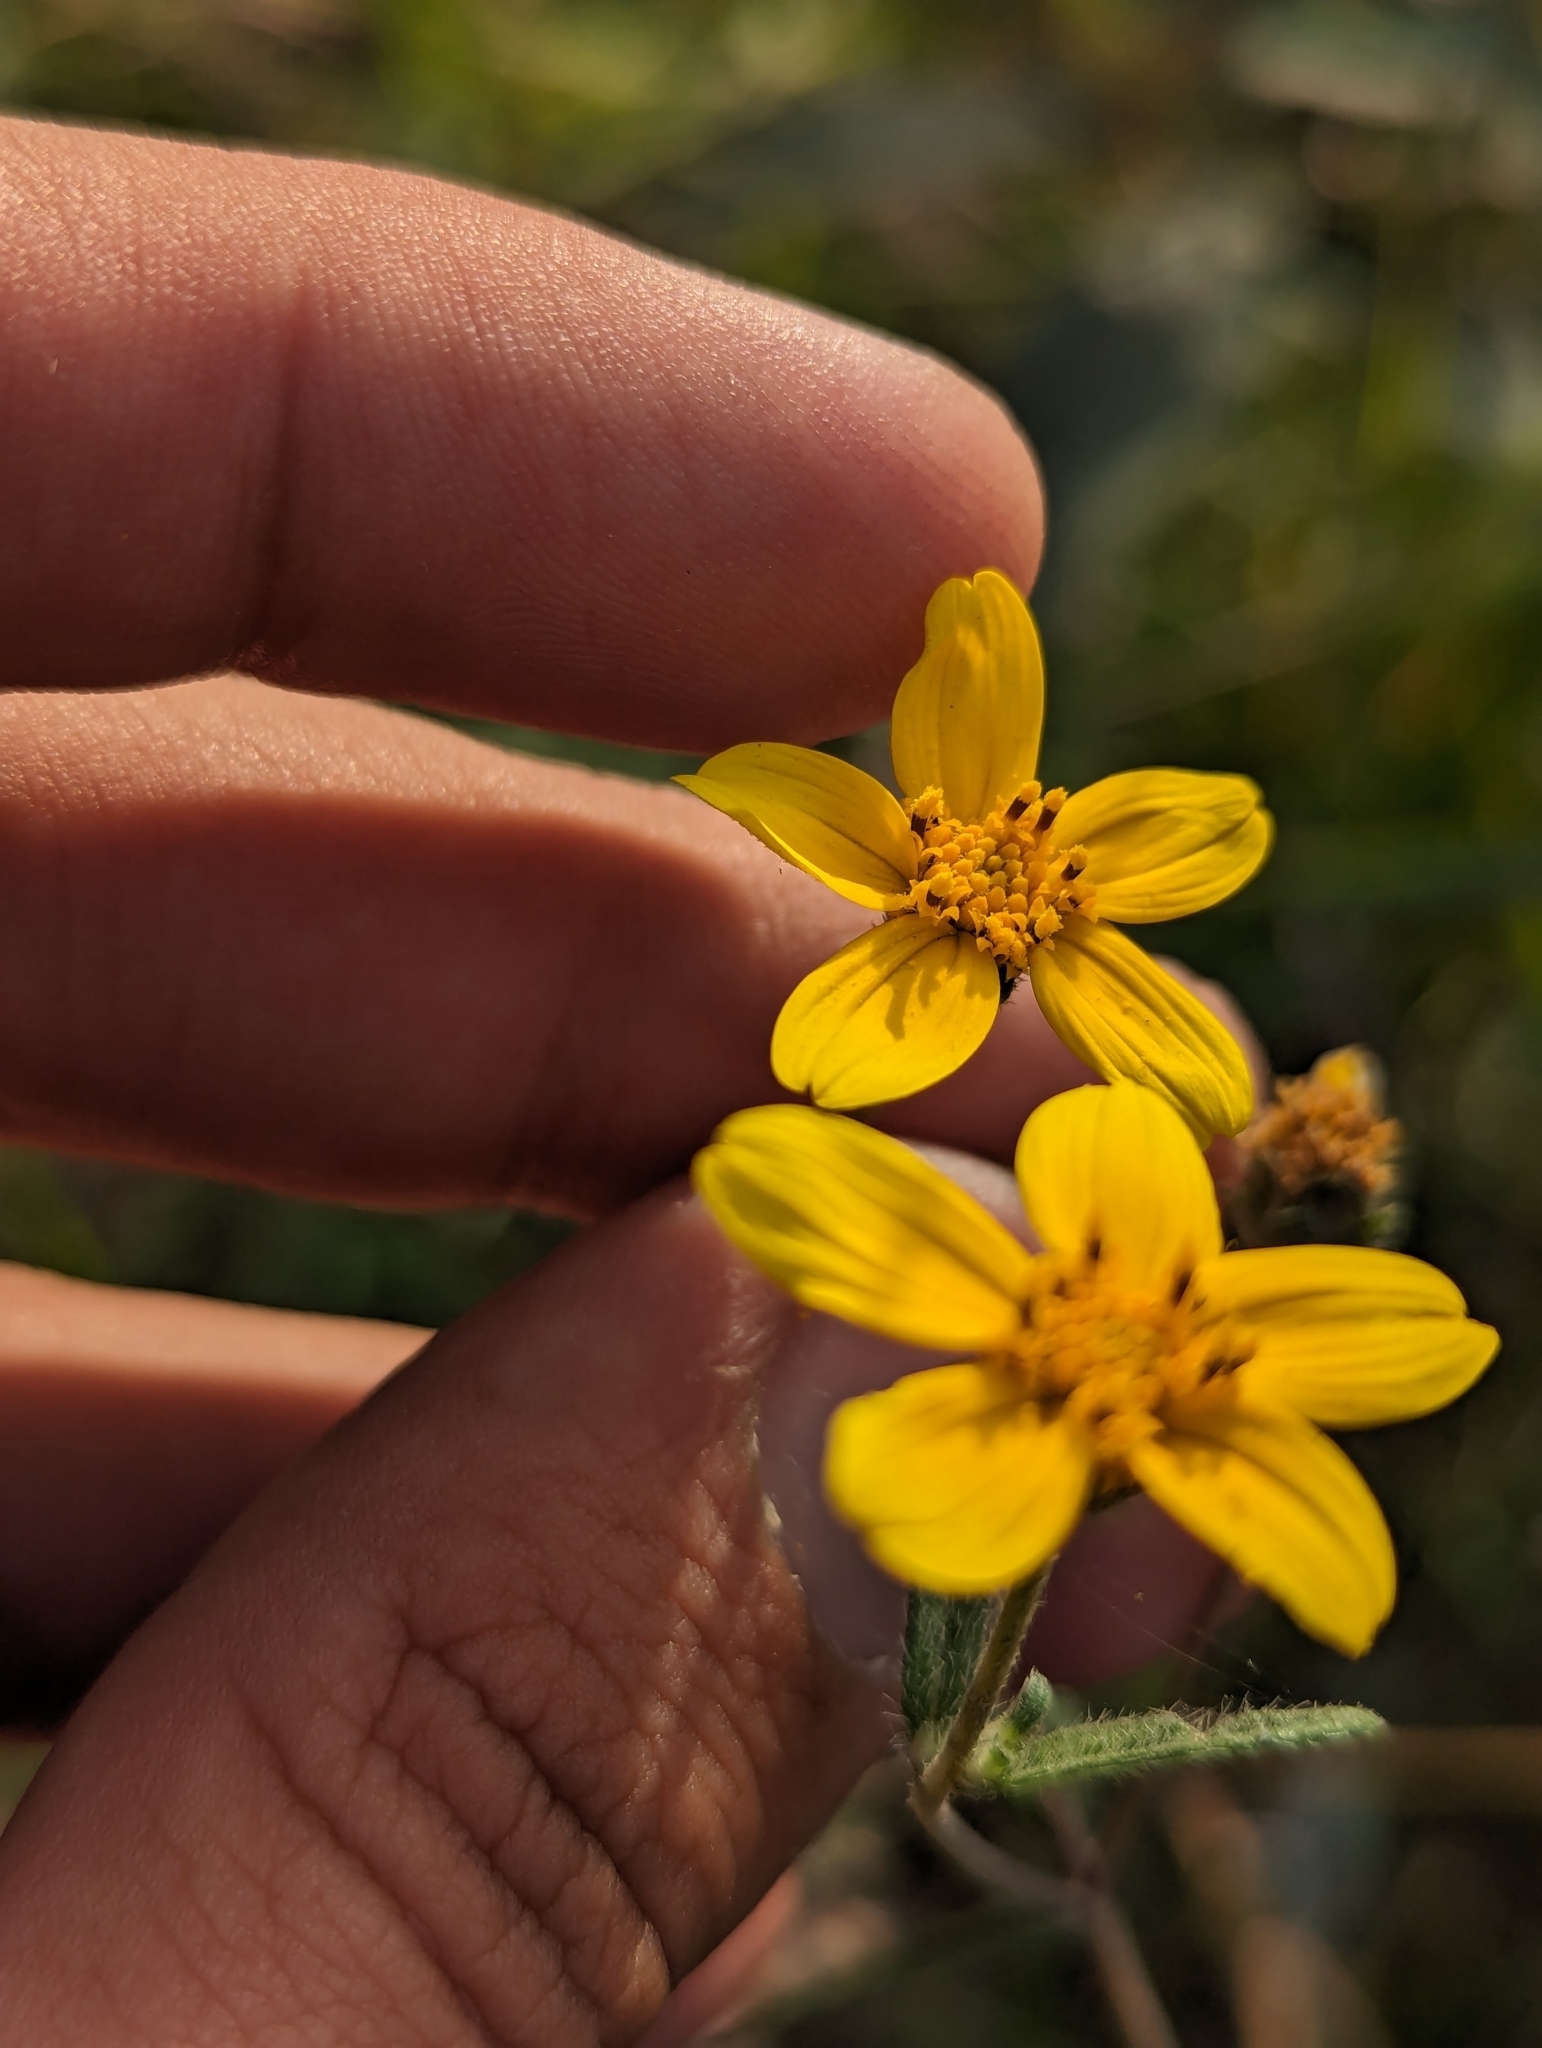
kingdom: Plantae
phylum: Tracheophyta
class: Magnoliopsida
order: Asterales
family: Asteraceae
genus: Aldama
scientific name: Aldama dentata
